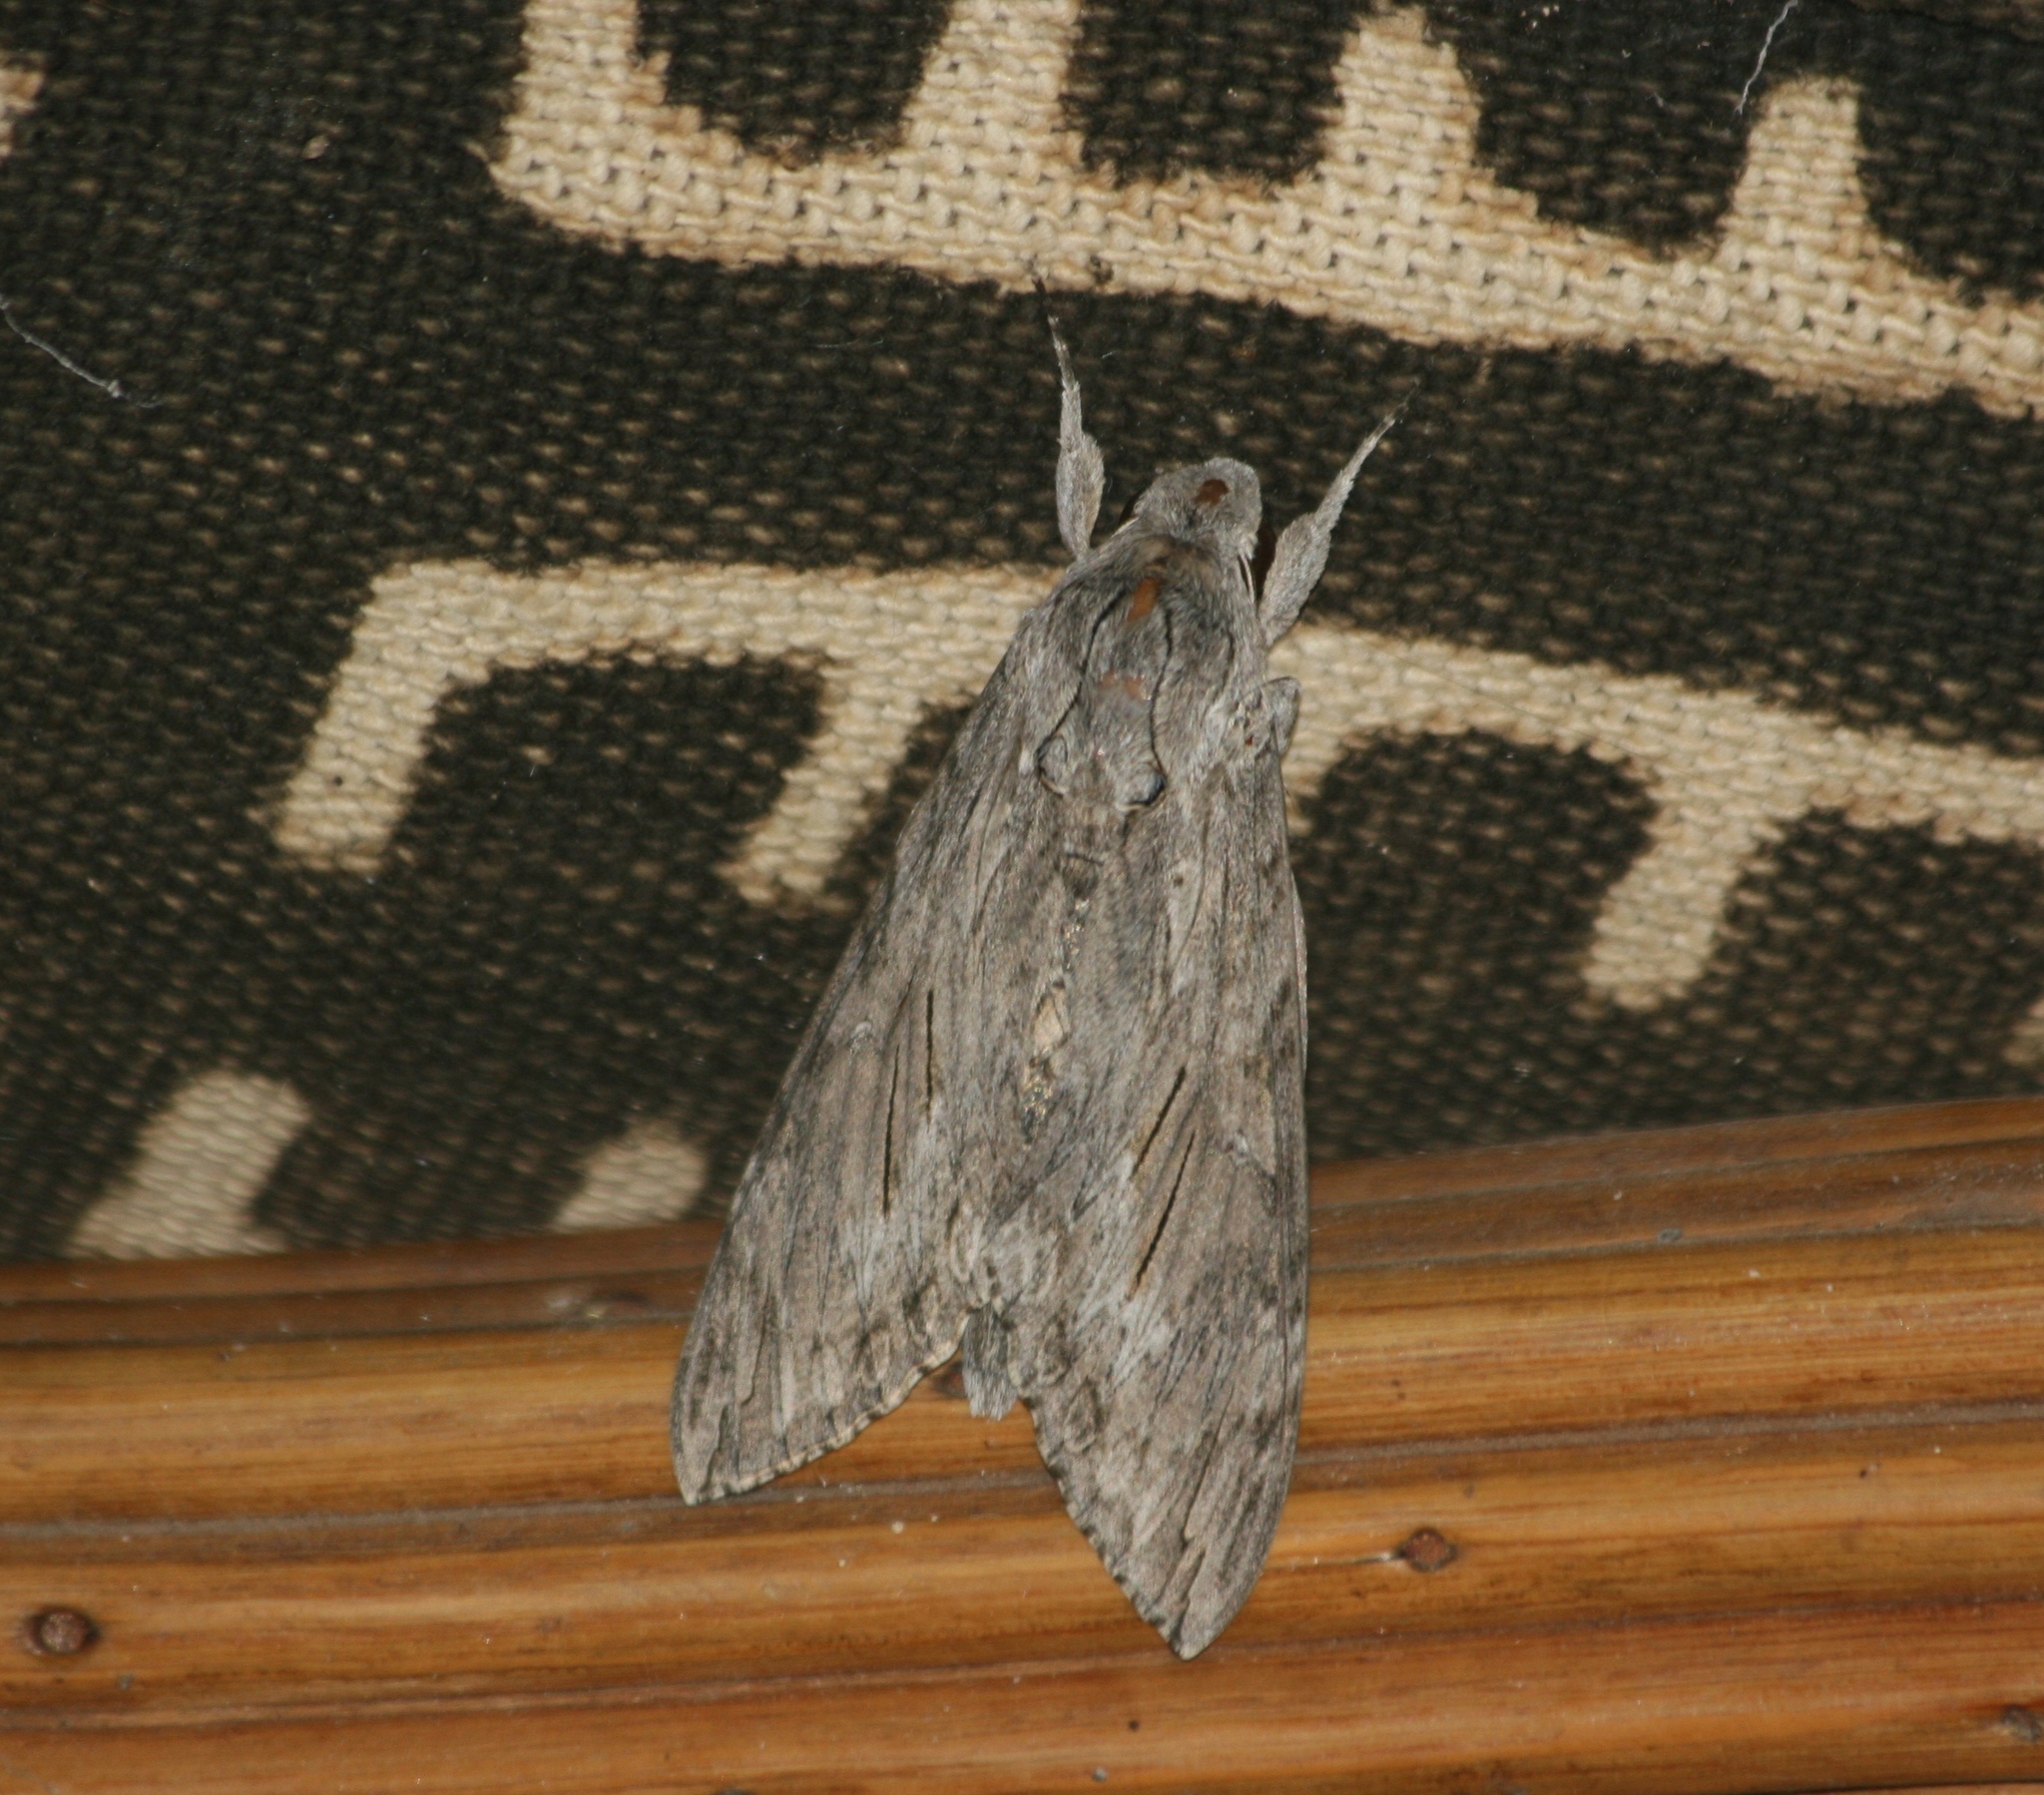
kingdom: Animalia
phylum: Arthropoda
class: Insecta
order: Lepidoptera
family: Sphingidae
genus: Agrius
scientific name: Agrius convolvuli
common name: Convolvulus hawkmoth
